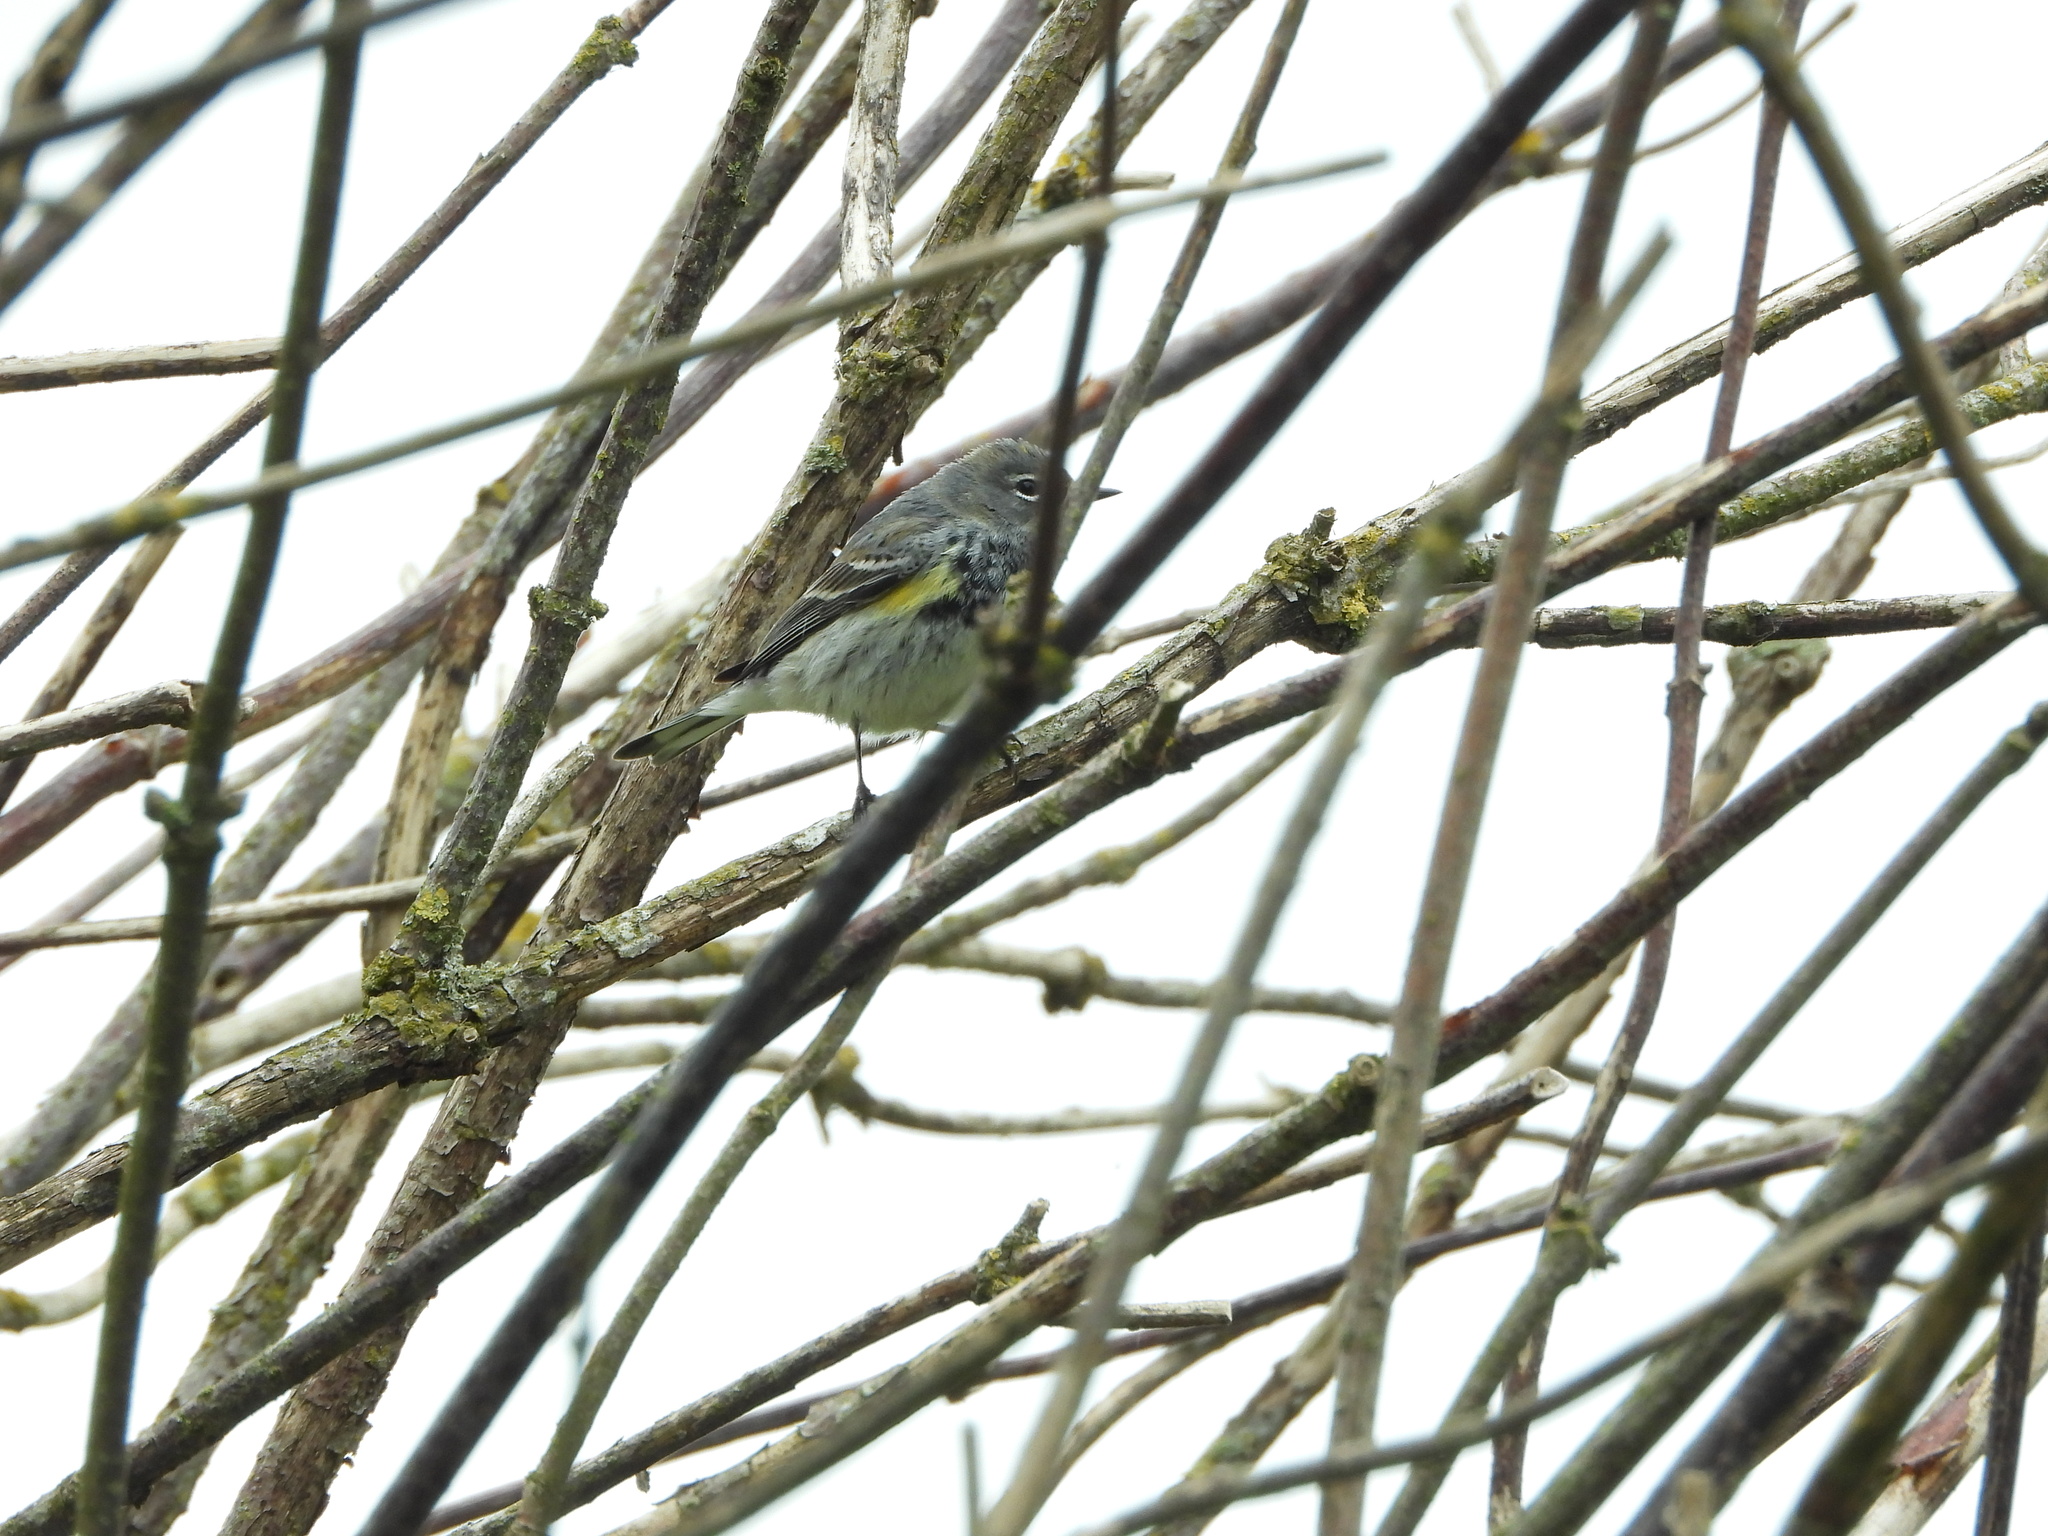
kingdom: Animalia
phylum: Chordata
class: Aves
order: Passeriformes
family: Parulidae
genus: Setophaga
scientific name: Setophaga coronata
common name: Myrtle warbler
